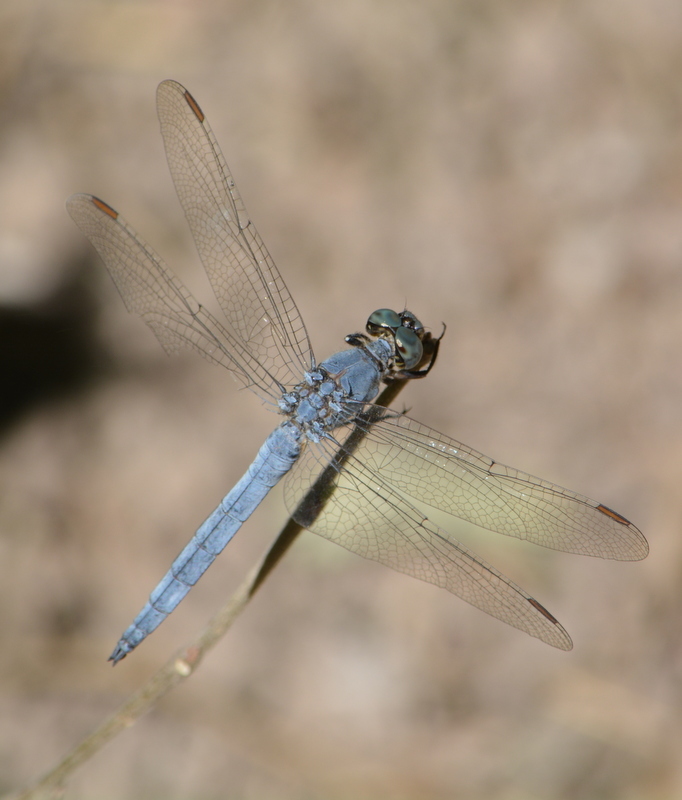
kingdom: Animalia
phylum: Arthropoda
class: Insecta
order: Odonata
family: Libellulidae
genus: Orthetrum
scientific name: Orthetrum coerulescens
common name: Keeled skimmer
